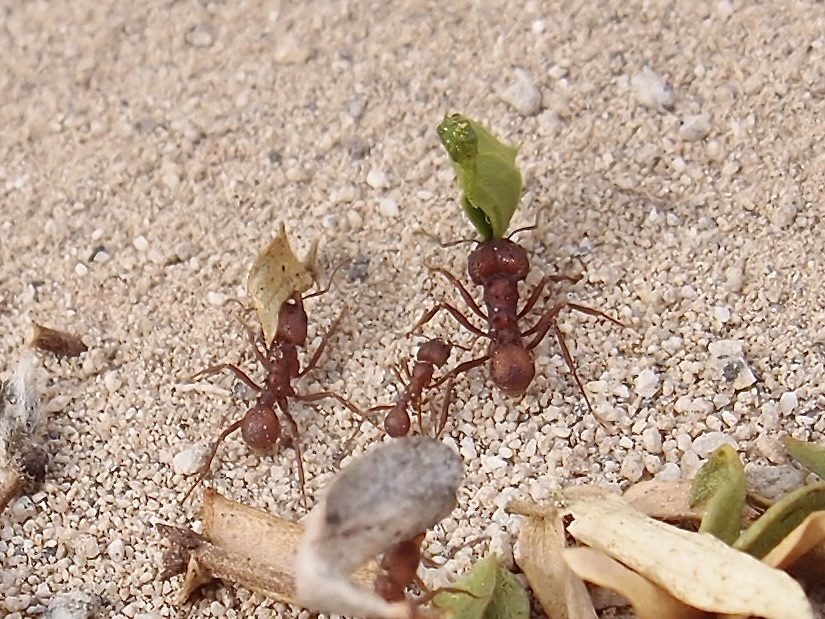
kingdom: Animalia
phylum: Arthropoda
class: Insecta
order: Hymenoptera
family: Formicidae
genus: Acromyrmex
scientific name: Acromyrmex versicolor
